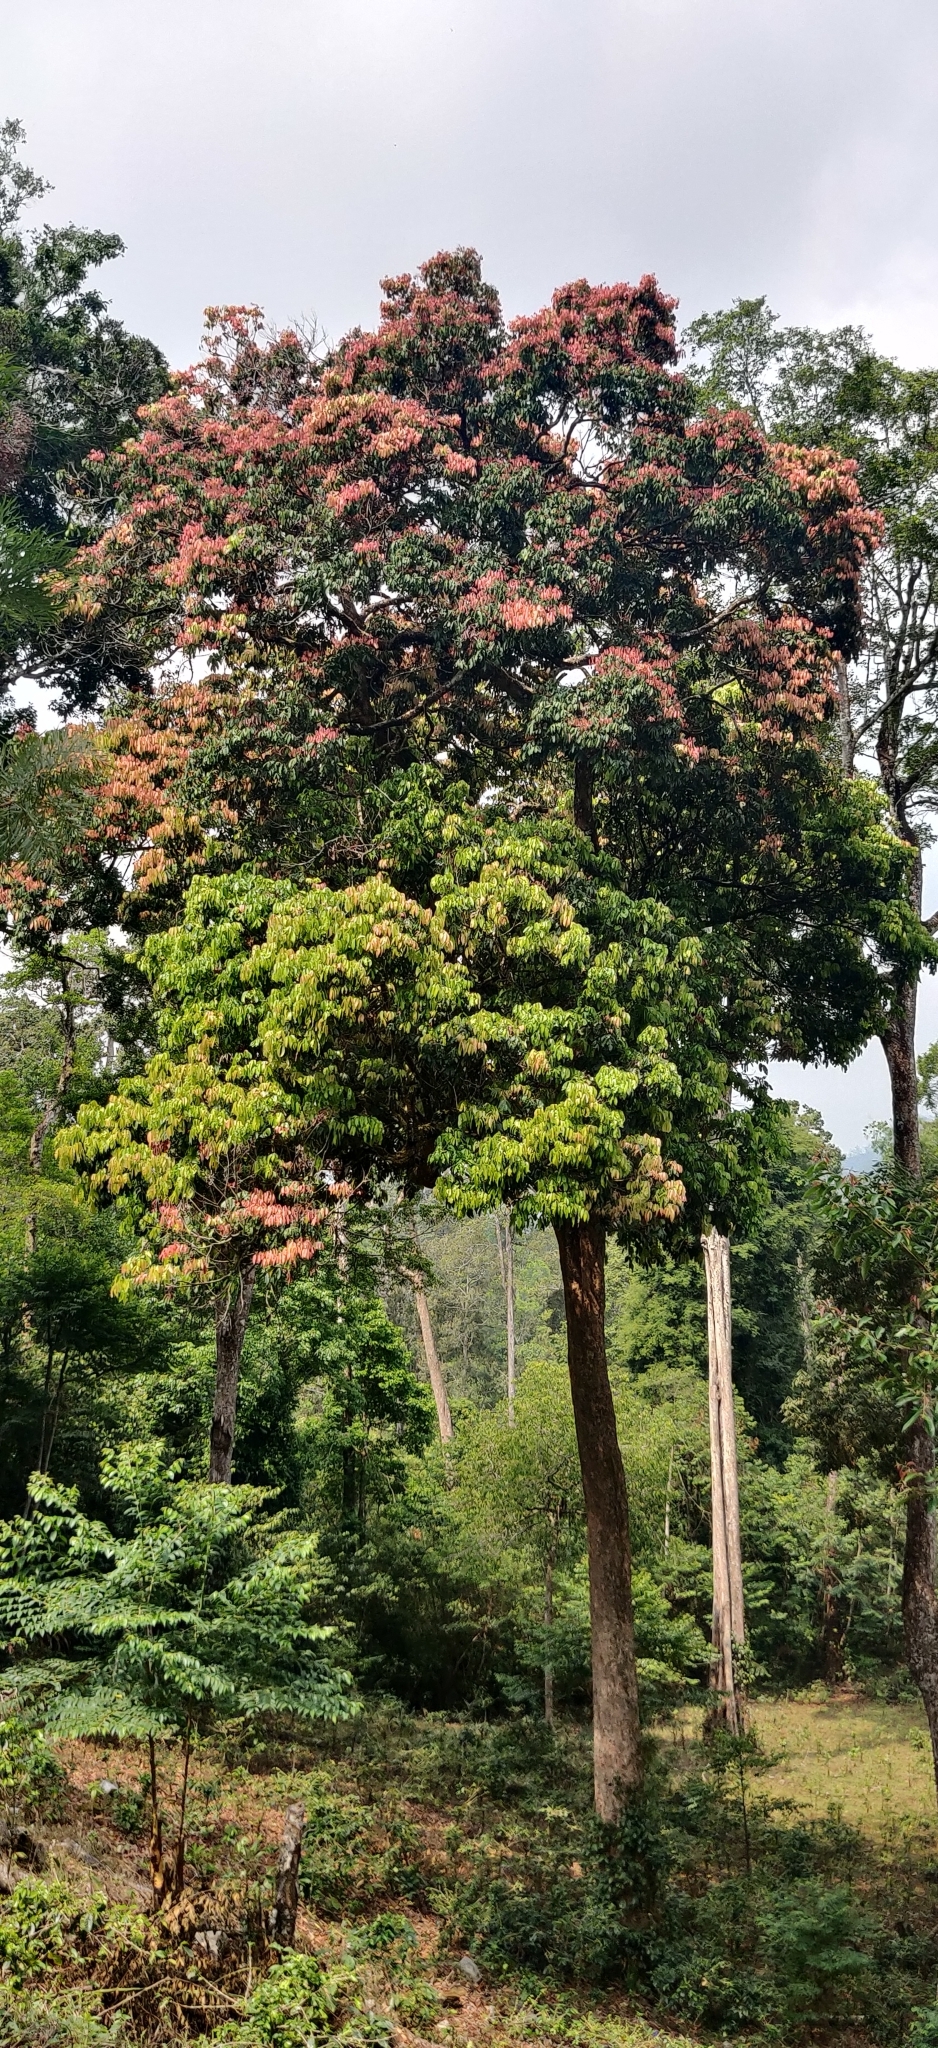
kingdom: Plantae
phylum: Tracheophyta
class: Magnoliopsida
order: Sapindales
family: Sapindaceae
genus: Dimocarpus
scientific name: Dimocarpus longan
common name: Longan
